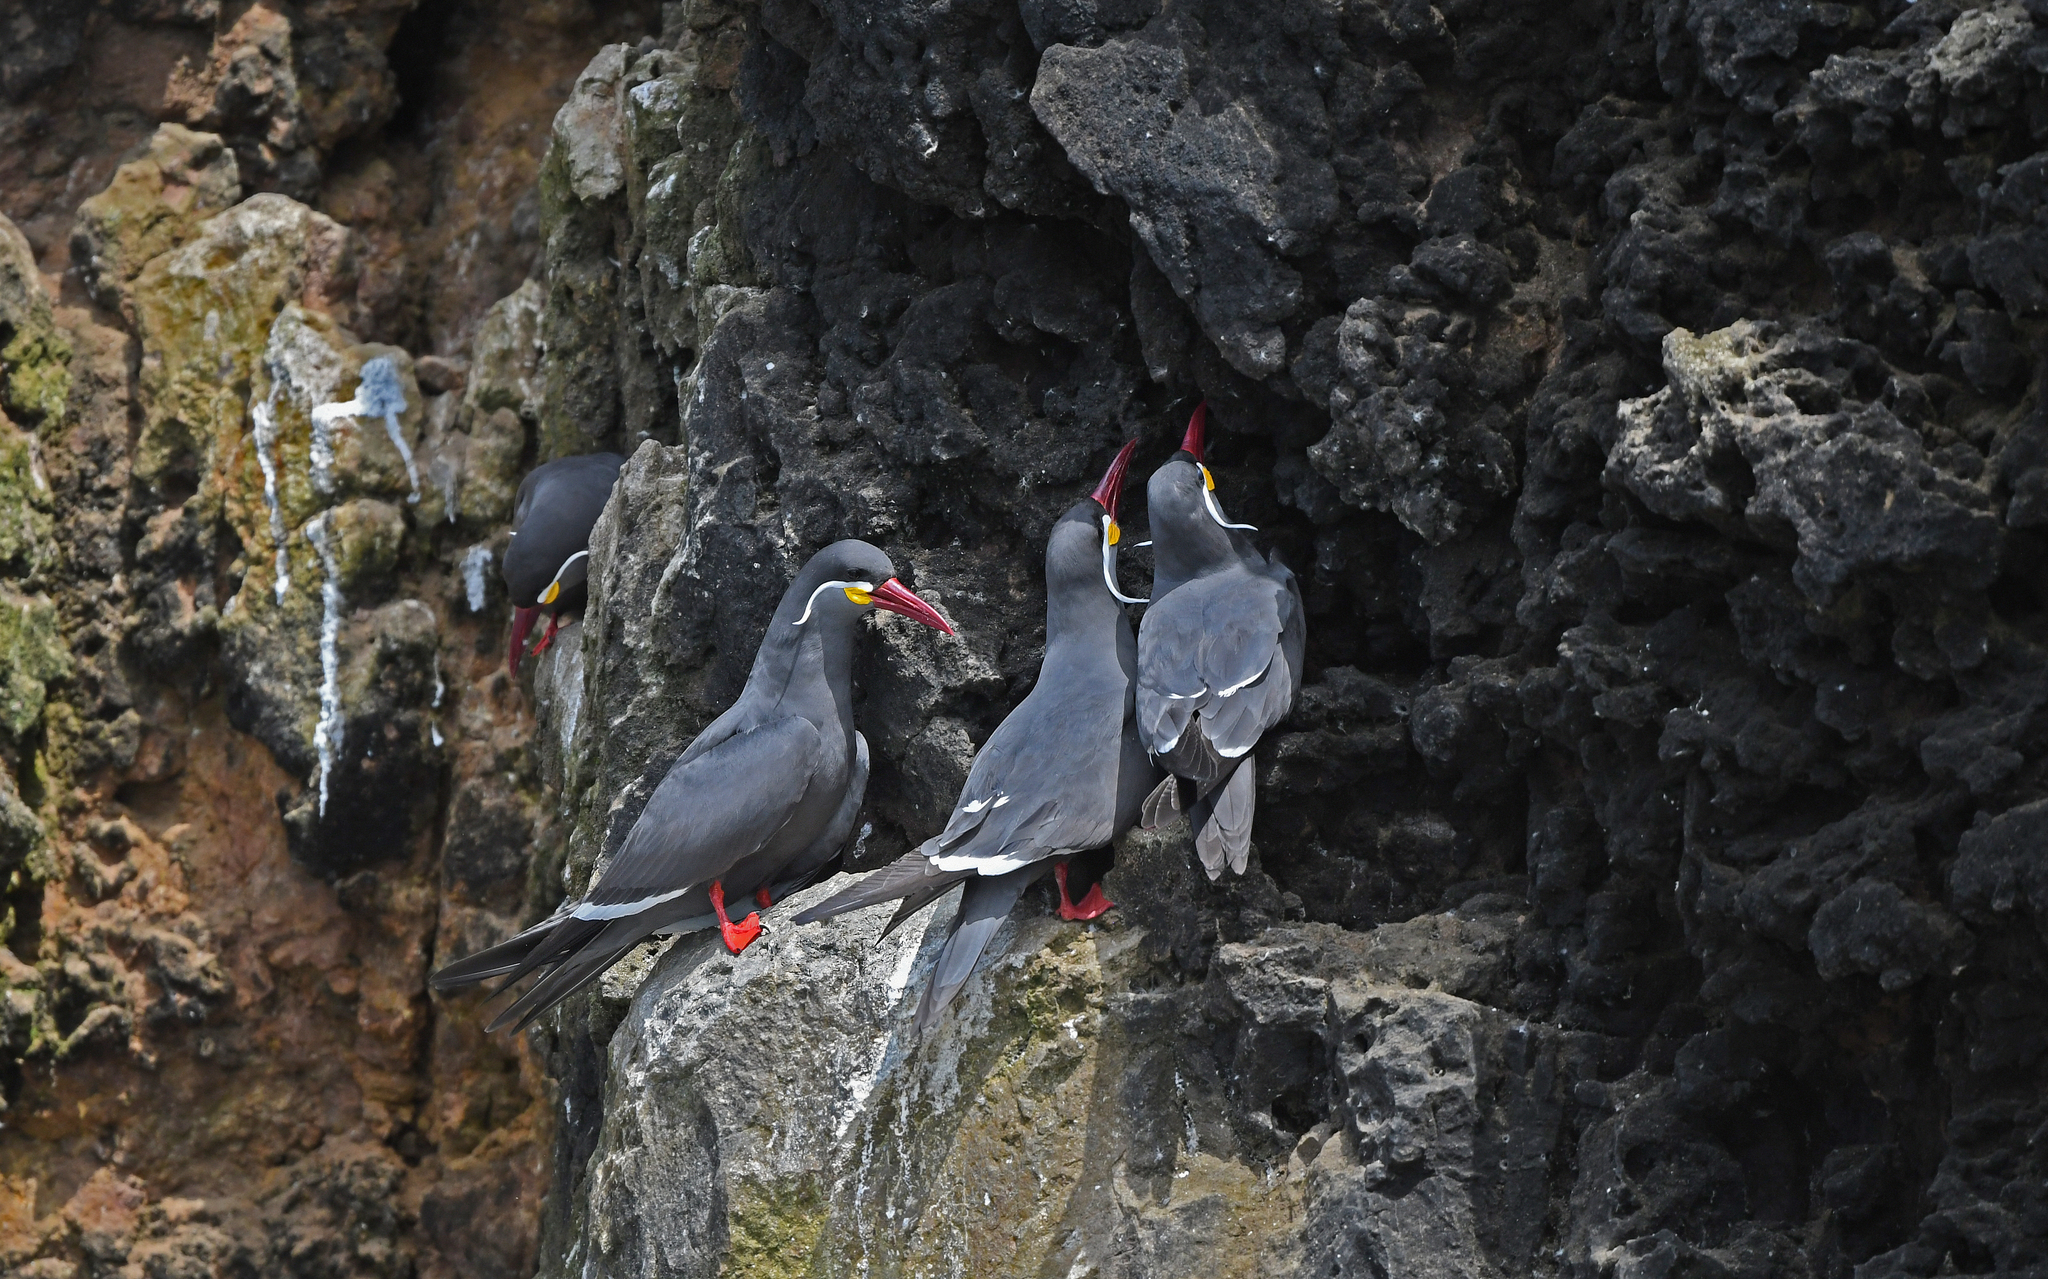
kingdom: Animalia
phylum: Chordata
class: Aves
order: Charadriiformes
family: Laridae
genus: Larosterna
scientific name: Larosterna inca
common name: Inca tern
